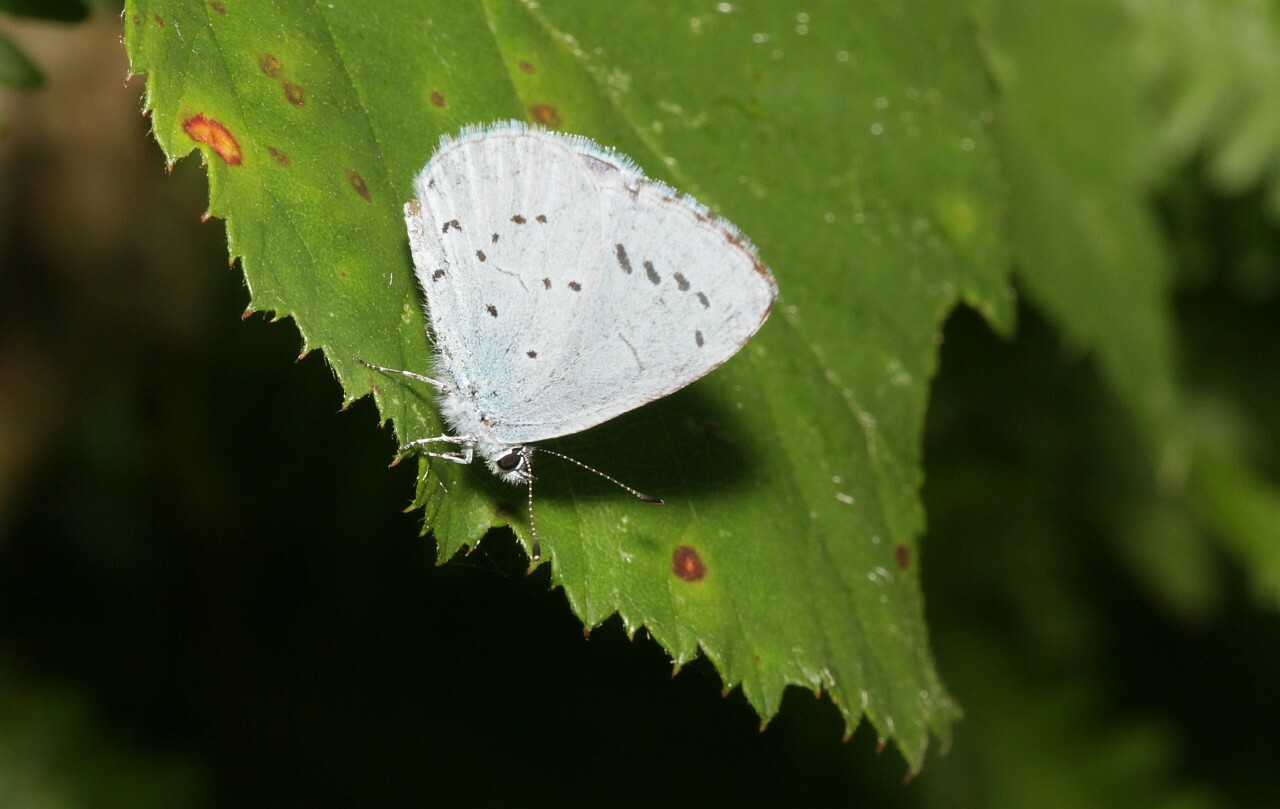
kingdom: Animalia
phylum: Arthropoda
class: Insecta
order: Lepidoptera
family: Lycaenidae
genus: Celastrina
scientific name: Celastrina argiolus
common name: Holly blue
